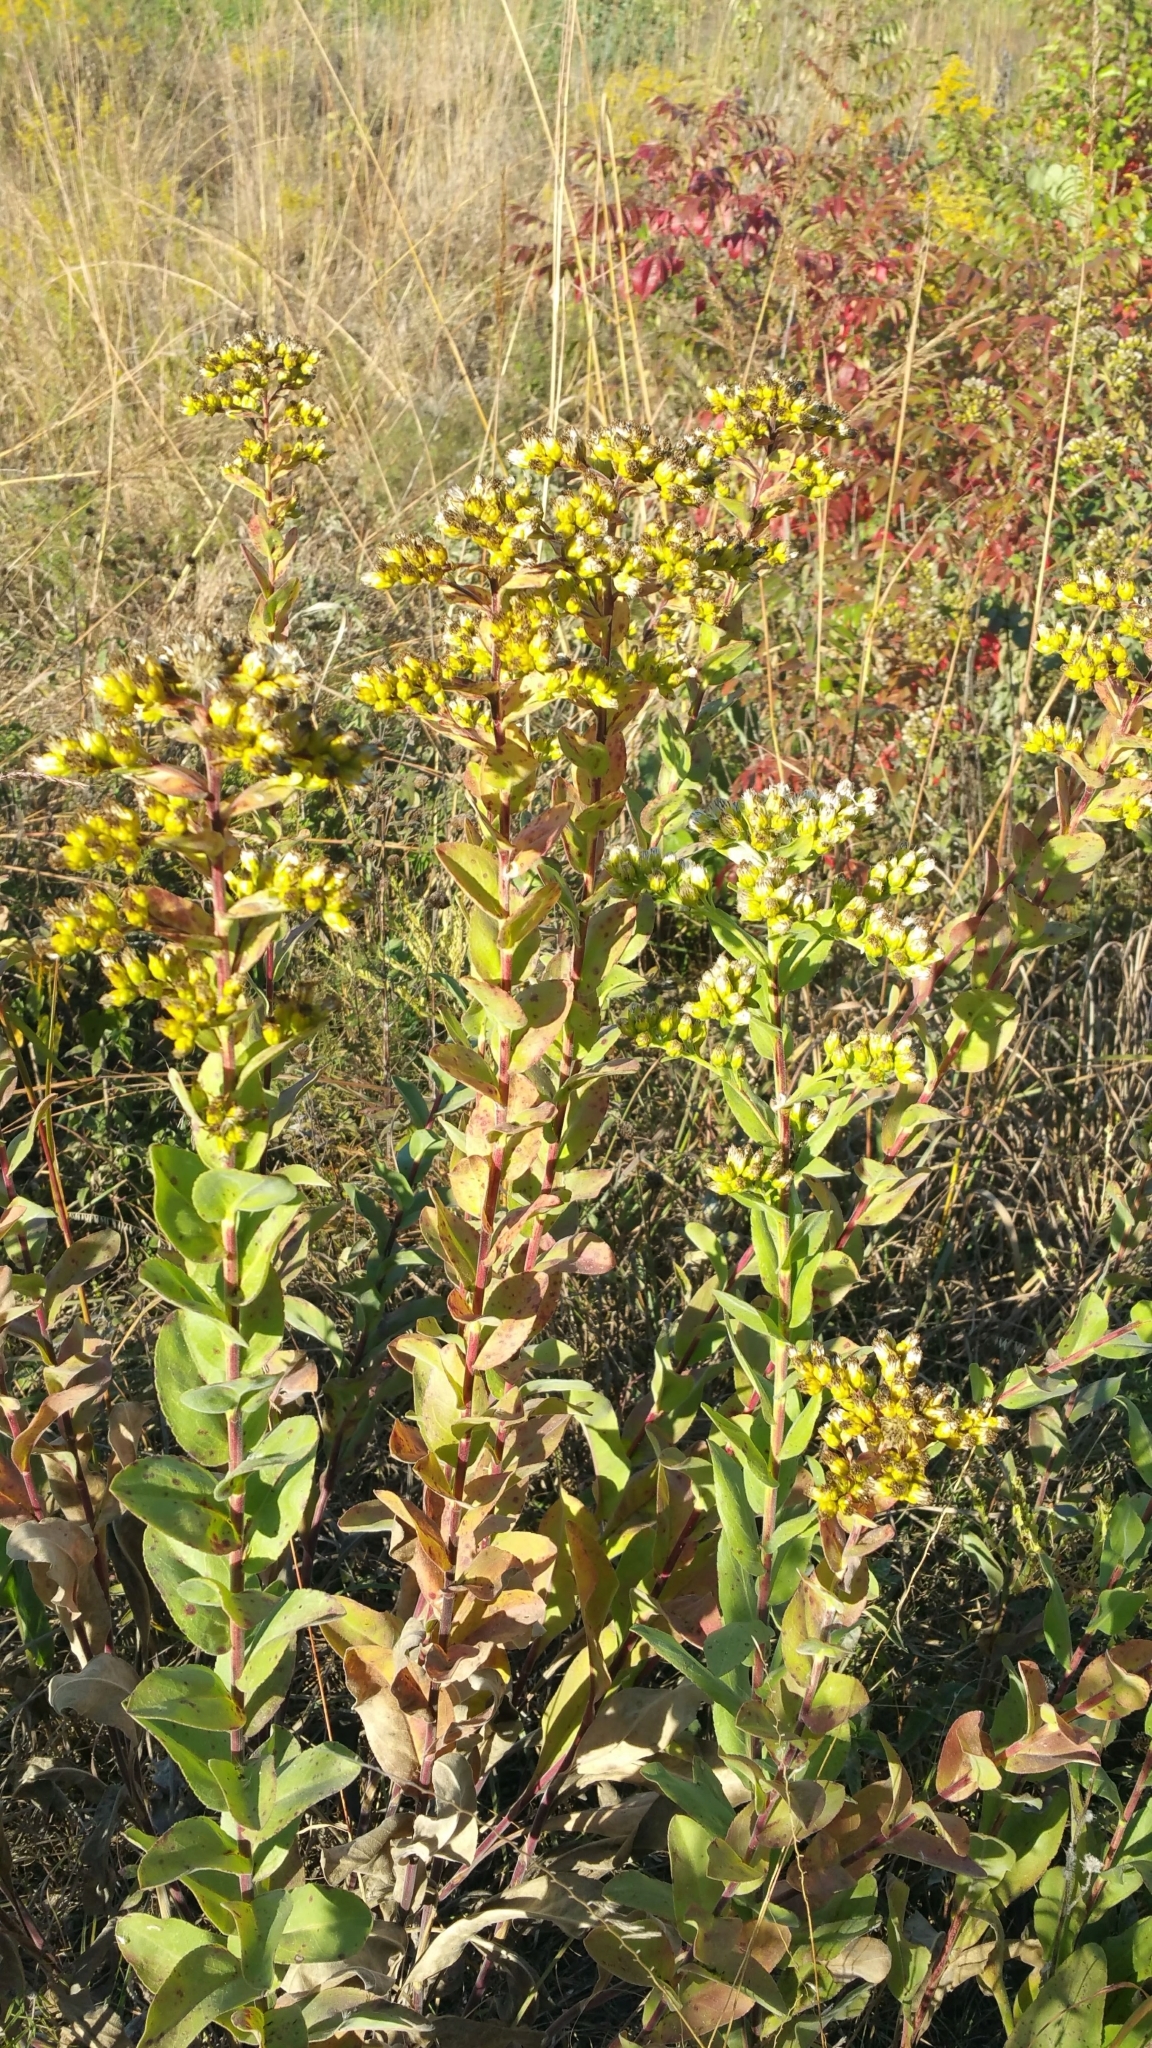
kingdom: Plantae
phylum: Tracheophyta
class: Magnoliopsida
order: Asterales
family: Asteraceae
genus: Solidago
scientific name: Solidago rigida
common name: Rigid goldenrod
